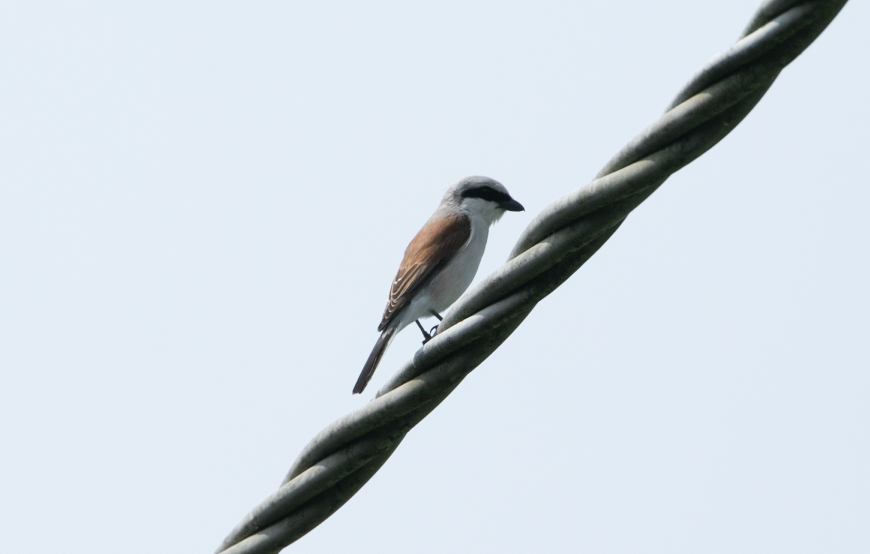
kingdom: Animalia
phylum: Chordata
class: Aves
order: Passeriformes
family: Laniidae
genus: Lanius
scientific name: Lanius collurio
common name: Red-backed shrike
